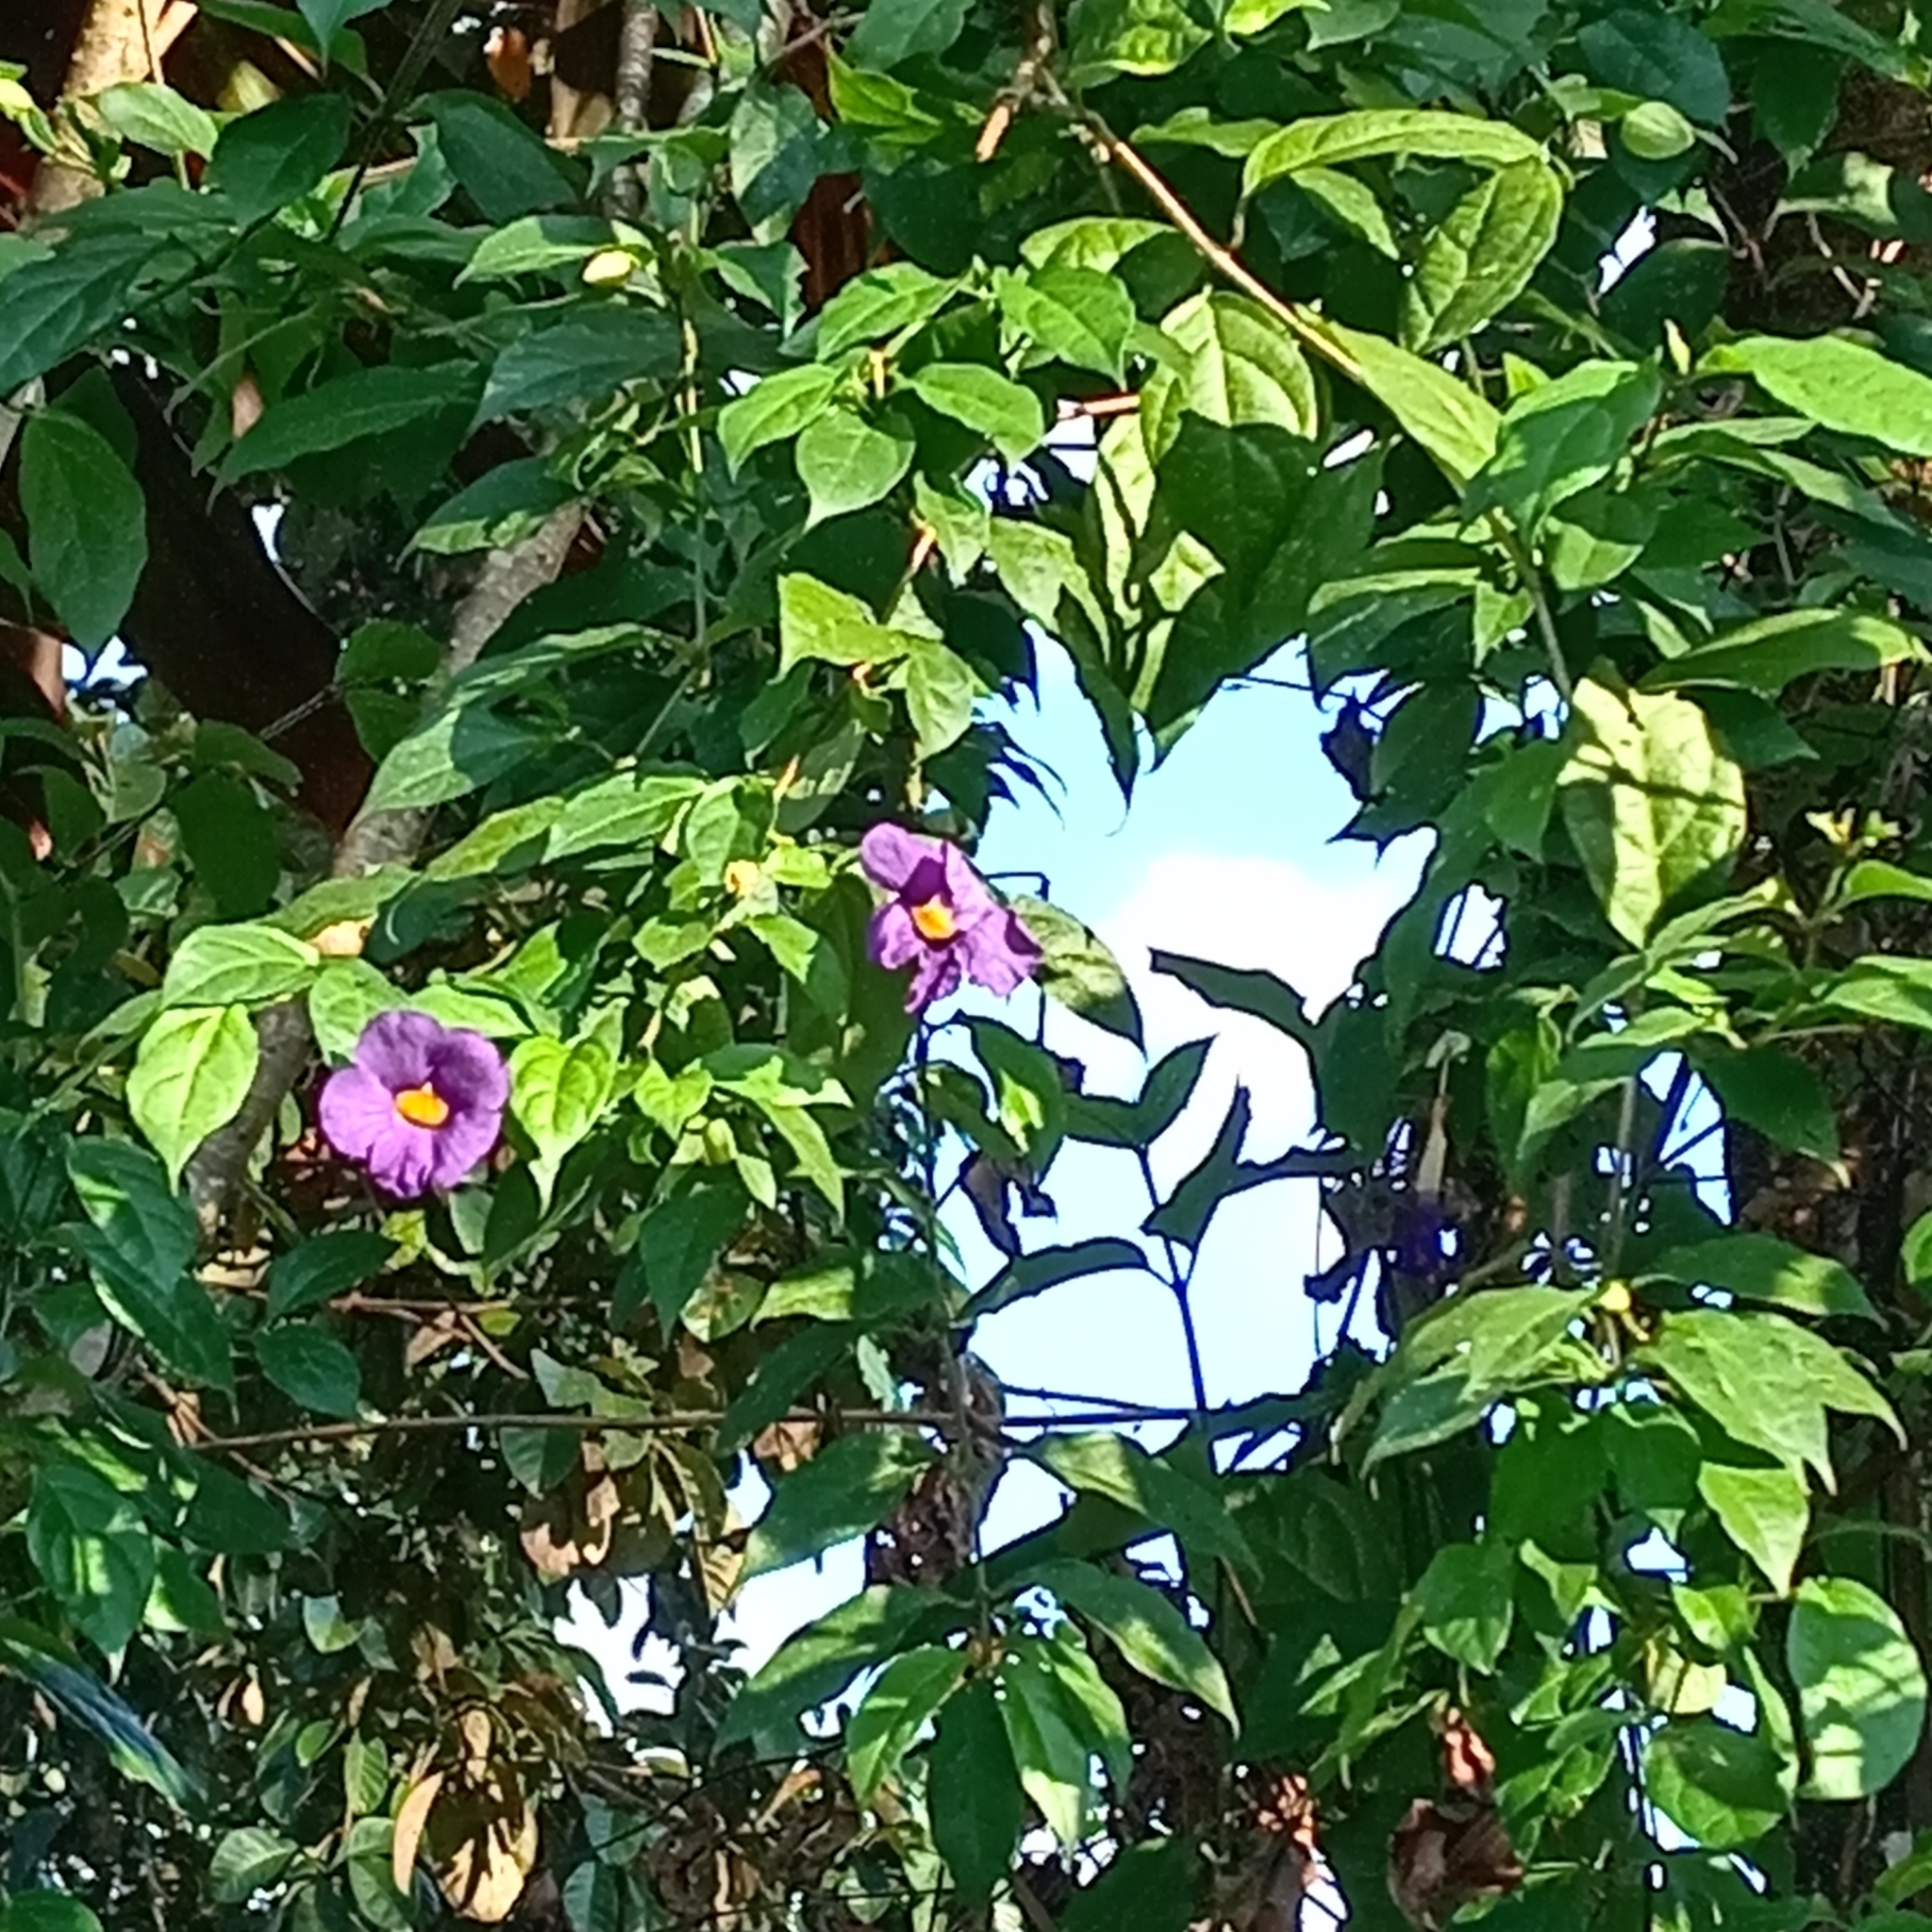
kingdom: Plantae
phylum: Tracheophyta
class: Magnoliopsida
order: Lamiales
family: Acanthaceae
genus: Thunbergia
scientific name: Thunbergia erecta
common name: Bush clockvine
